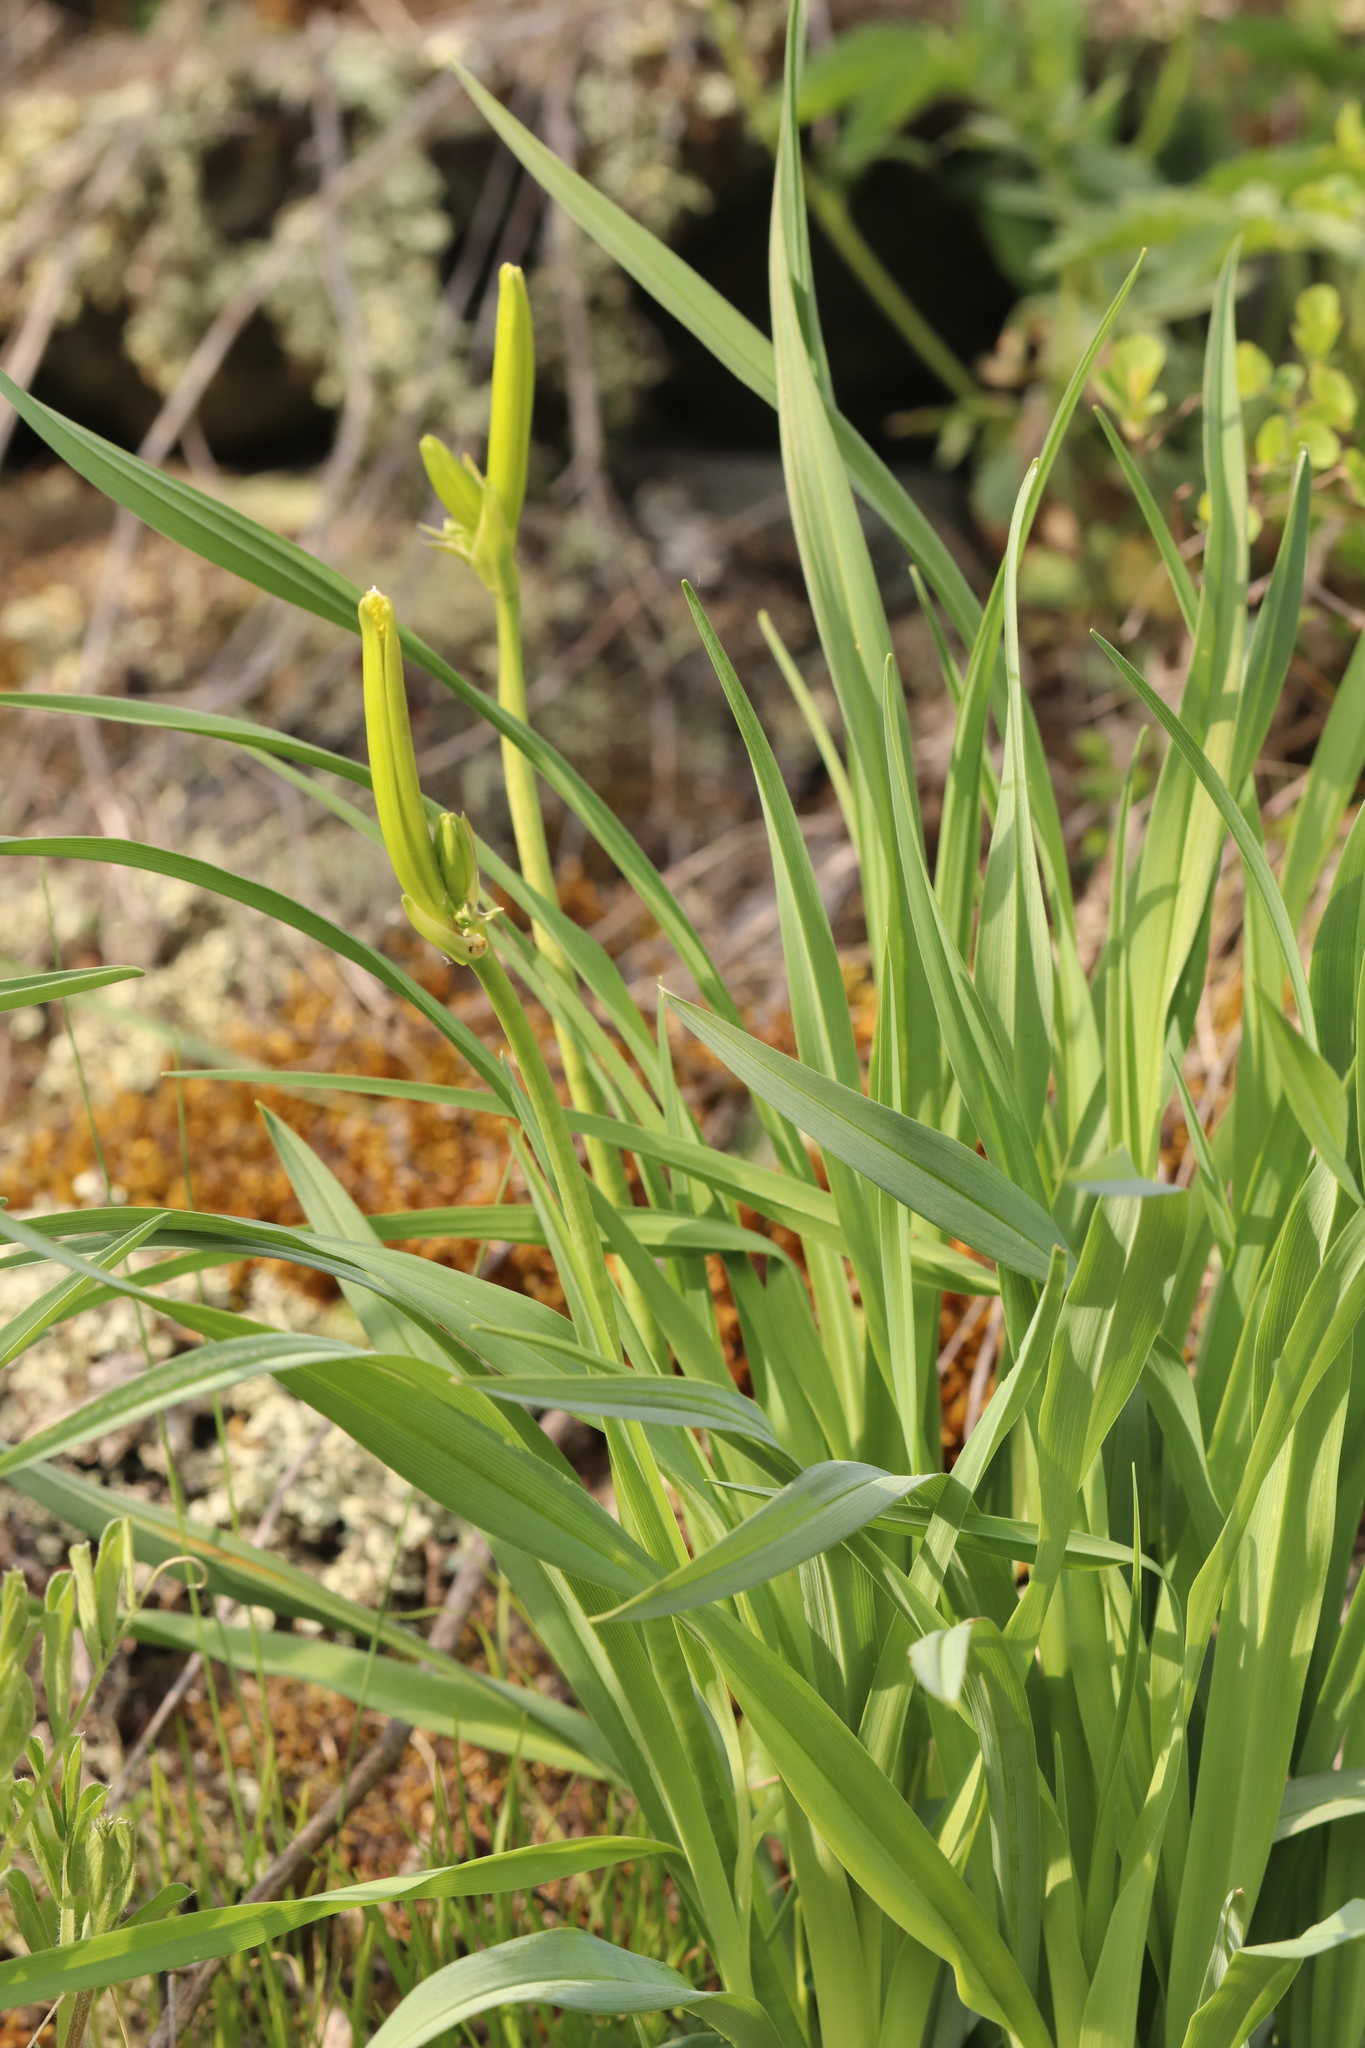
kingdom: Plantae
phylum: Tracheophyta
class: Liliopsida
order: Asparagales
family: Asphodelaceae
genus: Hemerocallis
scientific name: Hemerocallis minor
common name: Small daylily
